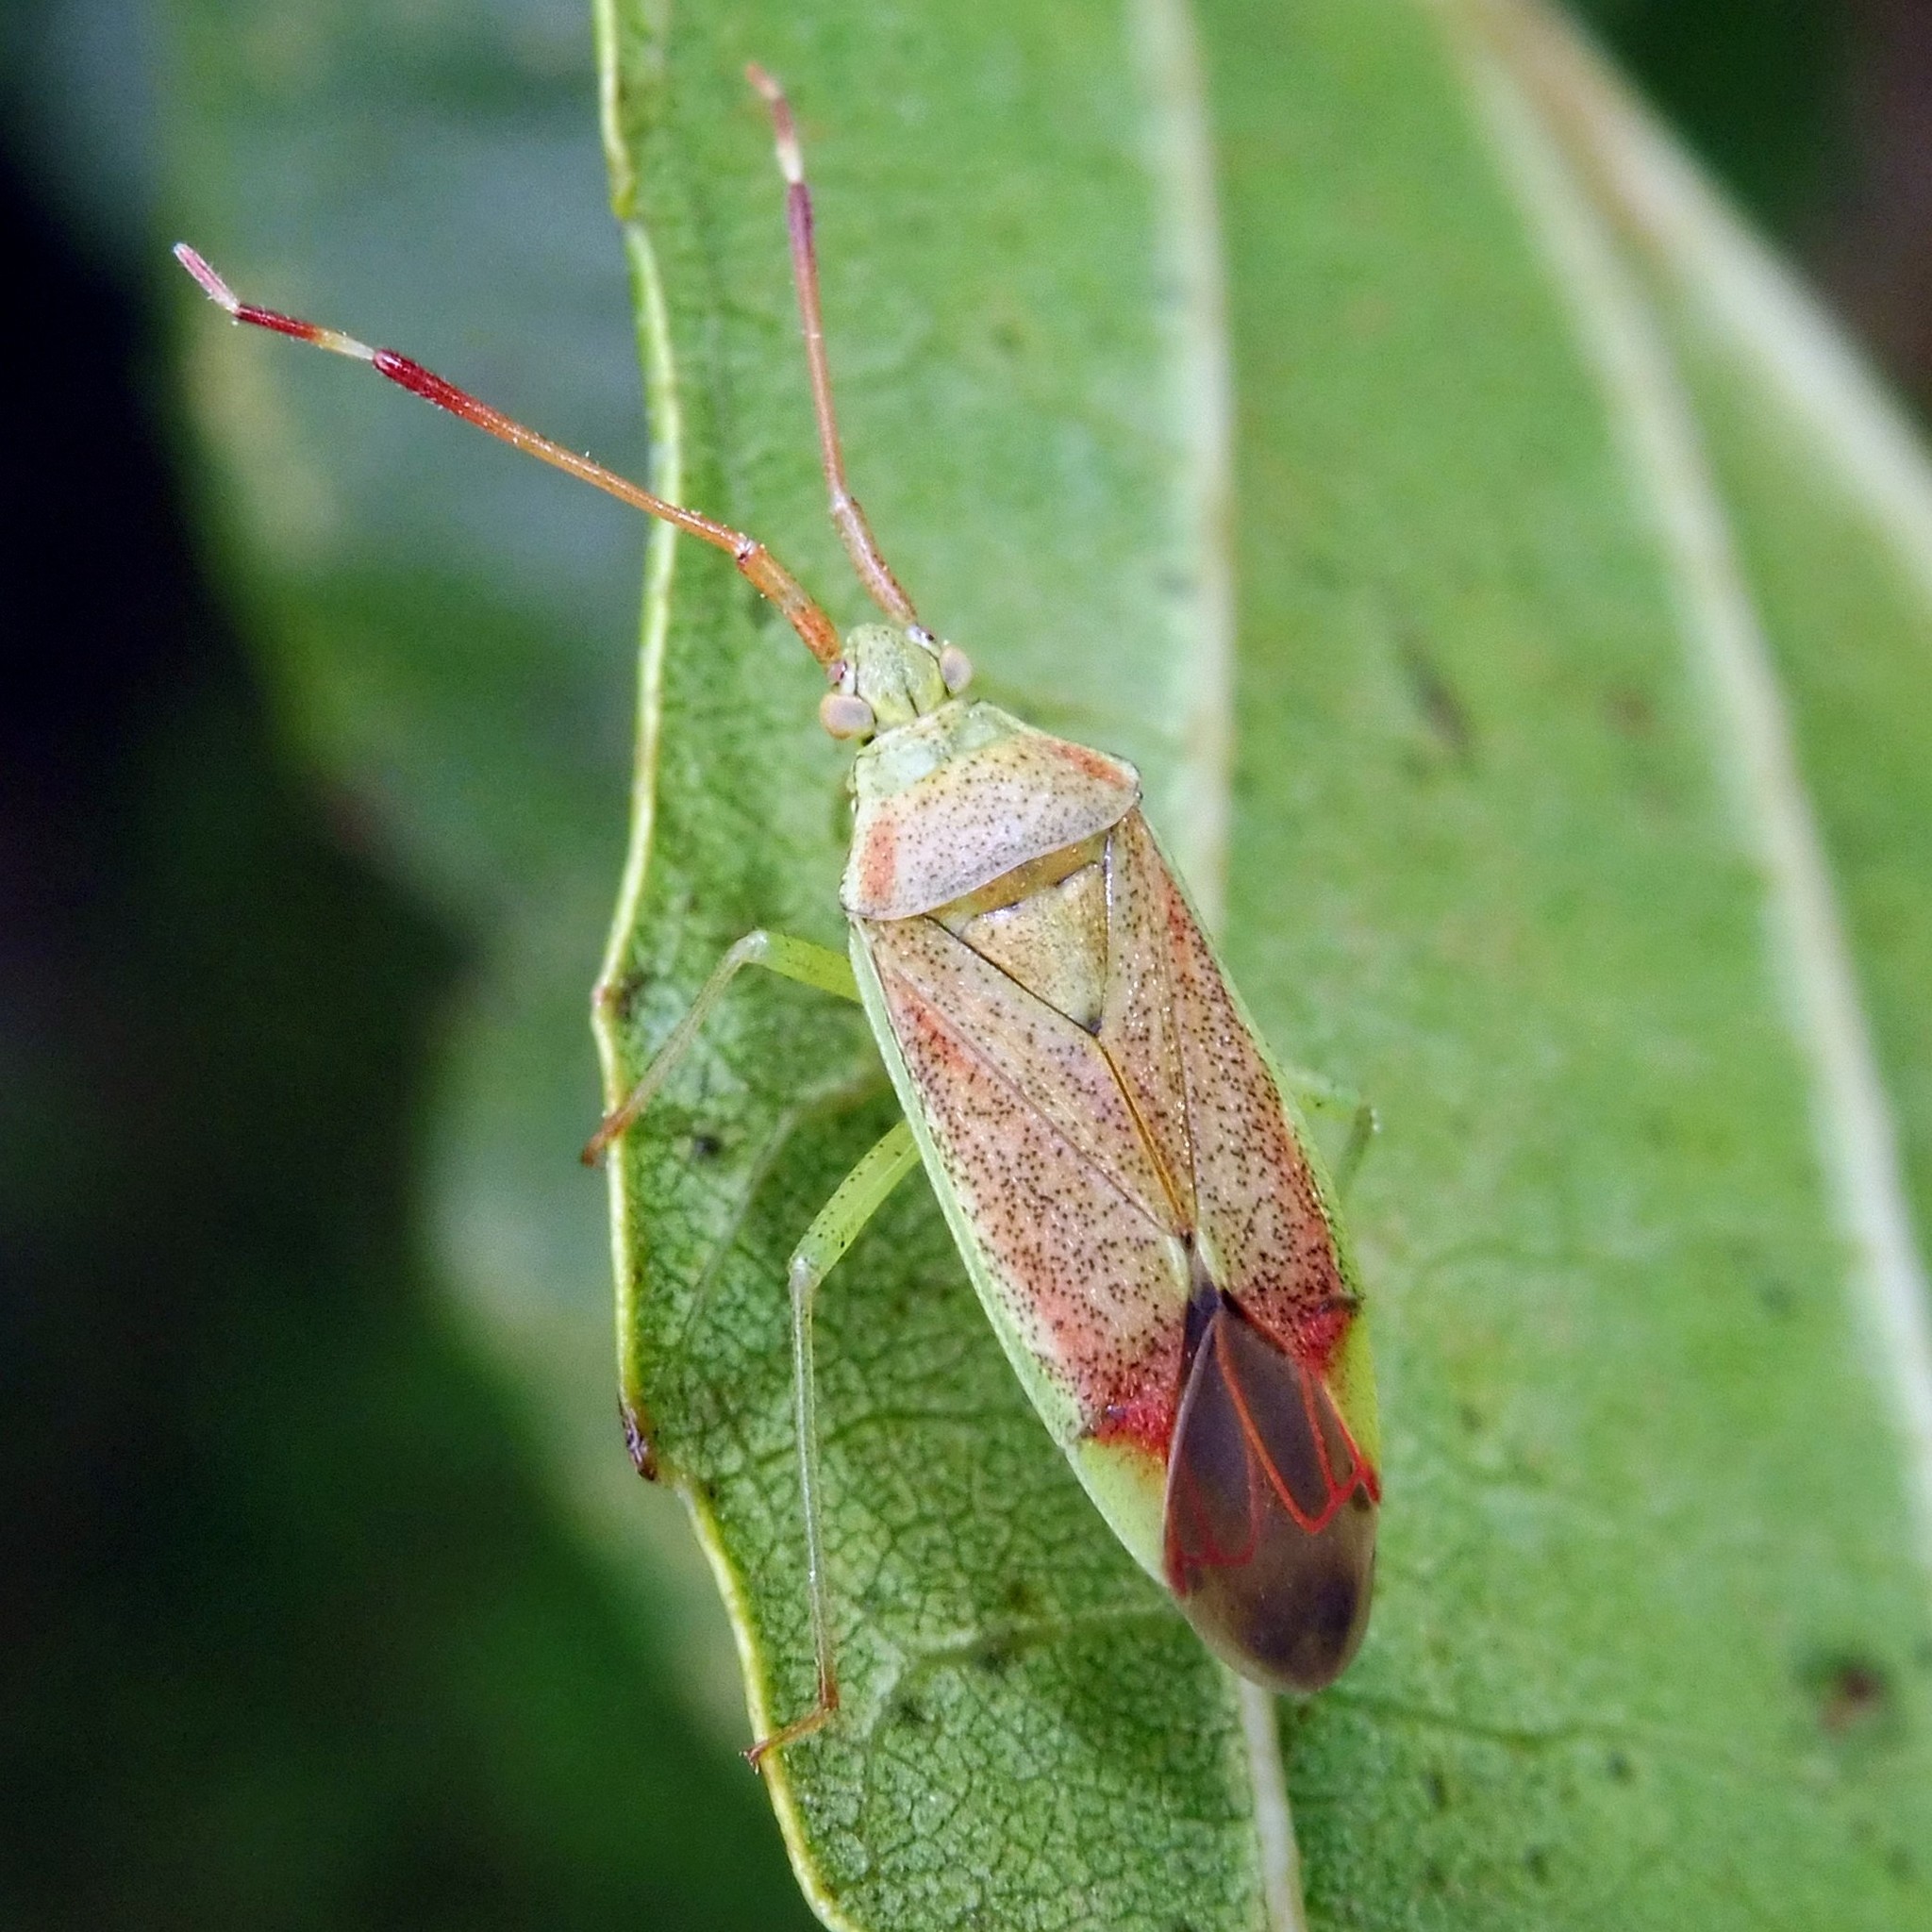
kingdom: Animalia
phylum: Arthropoda
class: Insecta
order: Hemiptera
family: Miridae
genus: Pantilius
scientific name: Pantilius tunicatus
